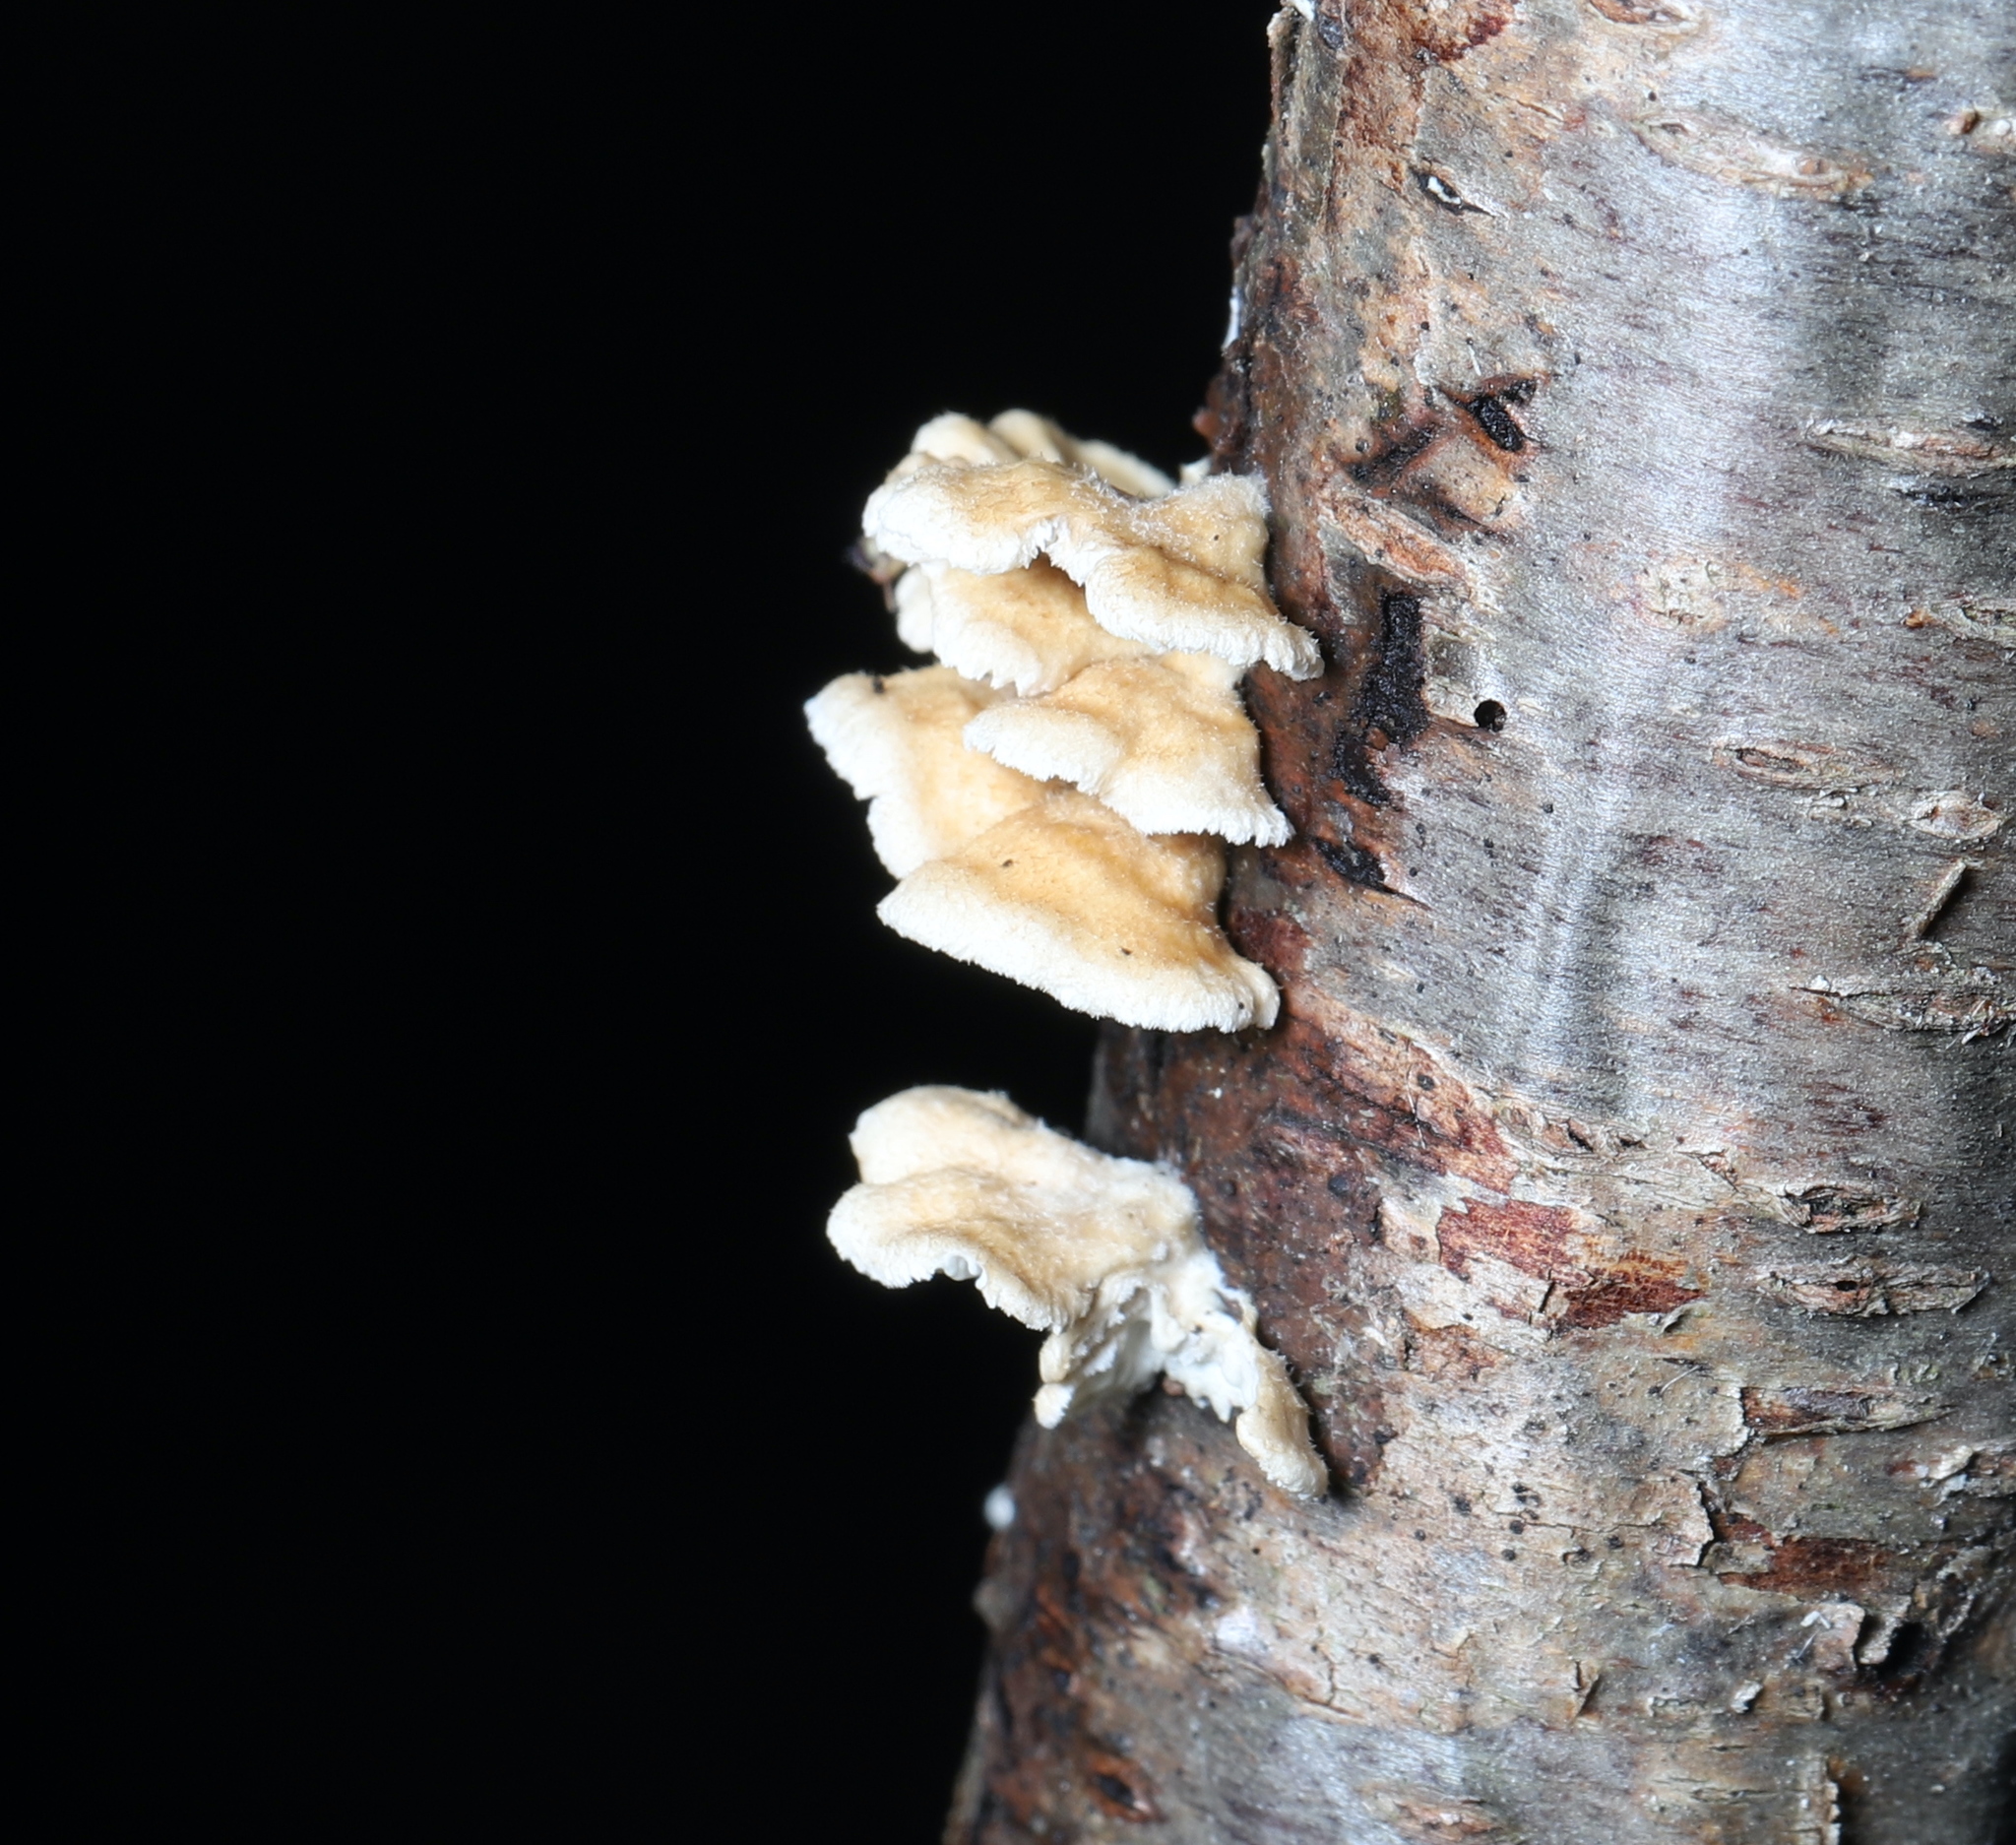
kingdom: Fungi
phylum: Basidiomycota
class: Agaricomycetes
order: Amylocorticiales
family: Amylocorticiaceae
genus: Plicaturopsis
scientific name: Plicaturopsis crispa
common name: Crimped gill
